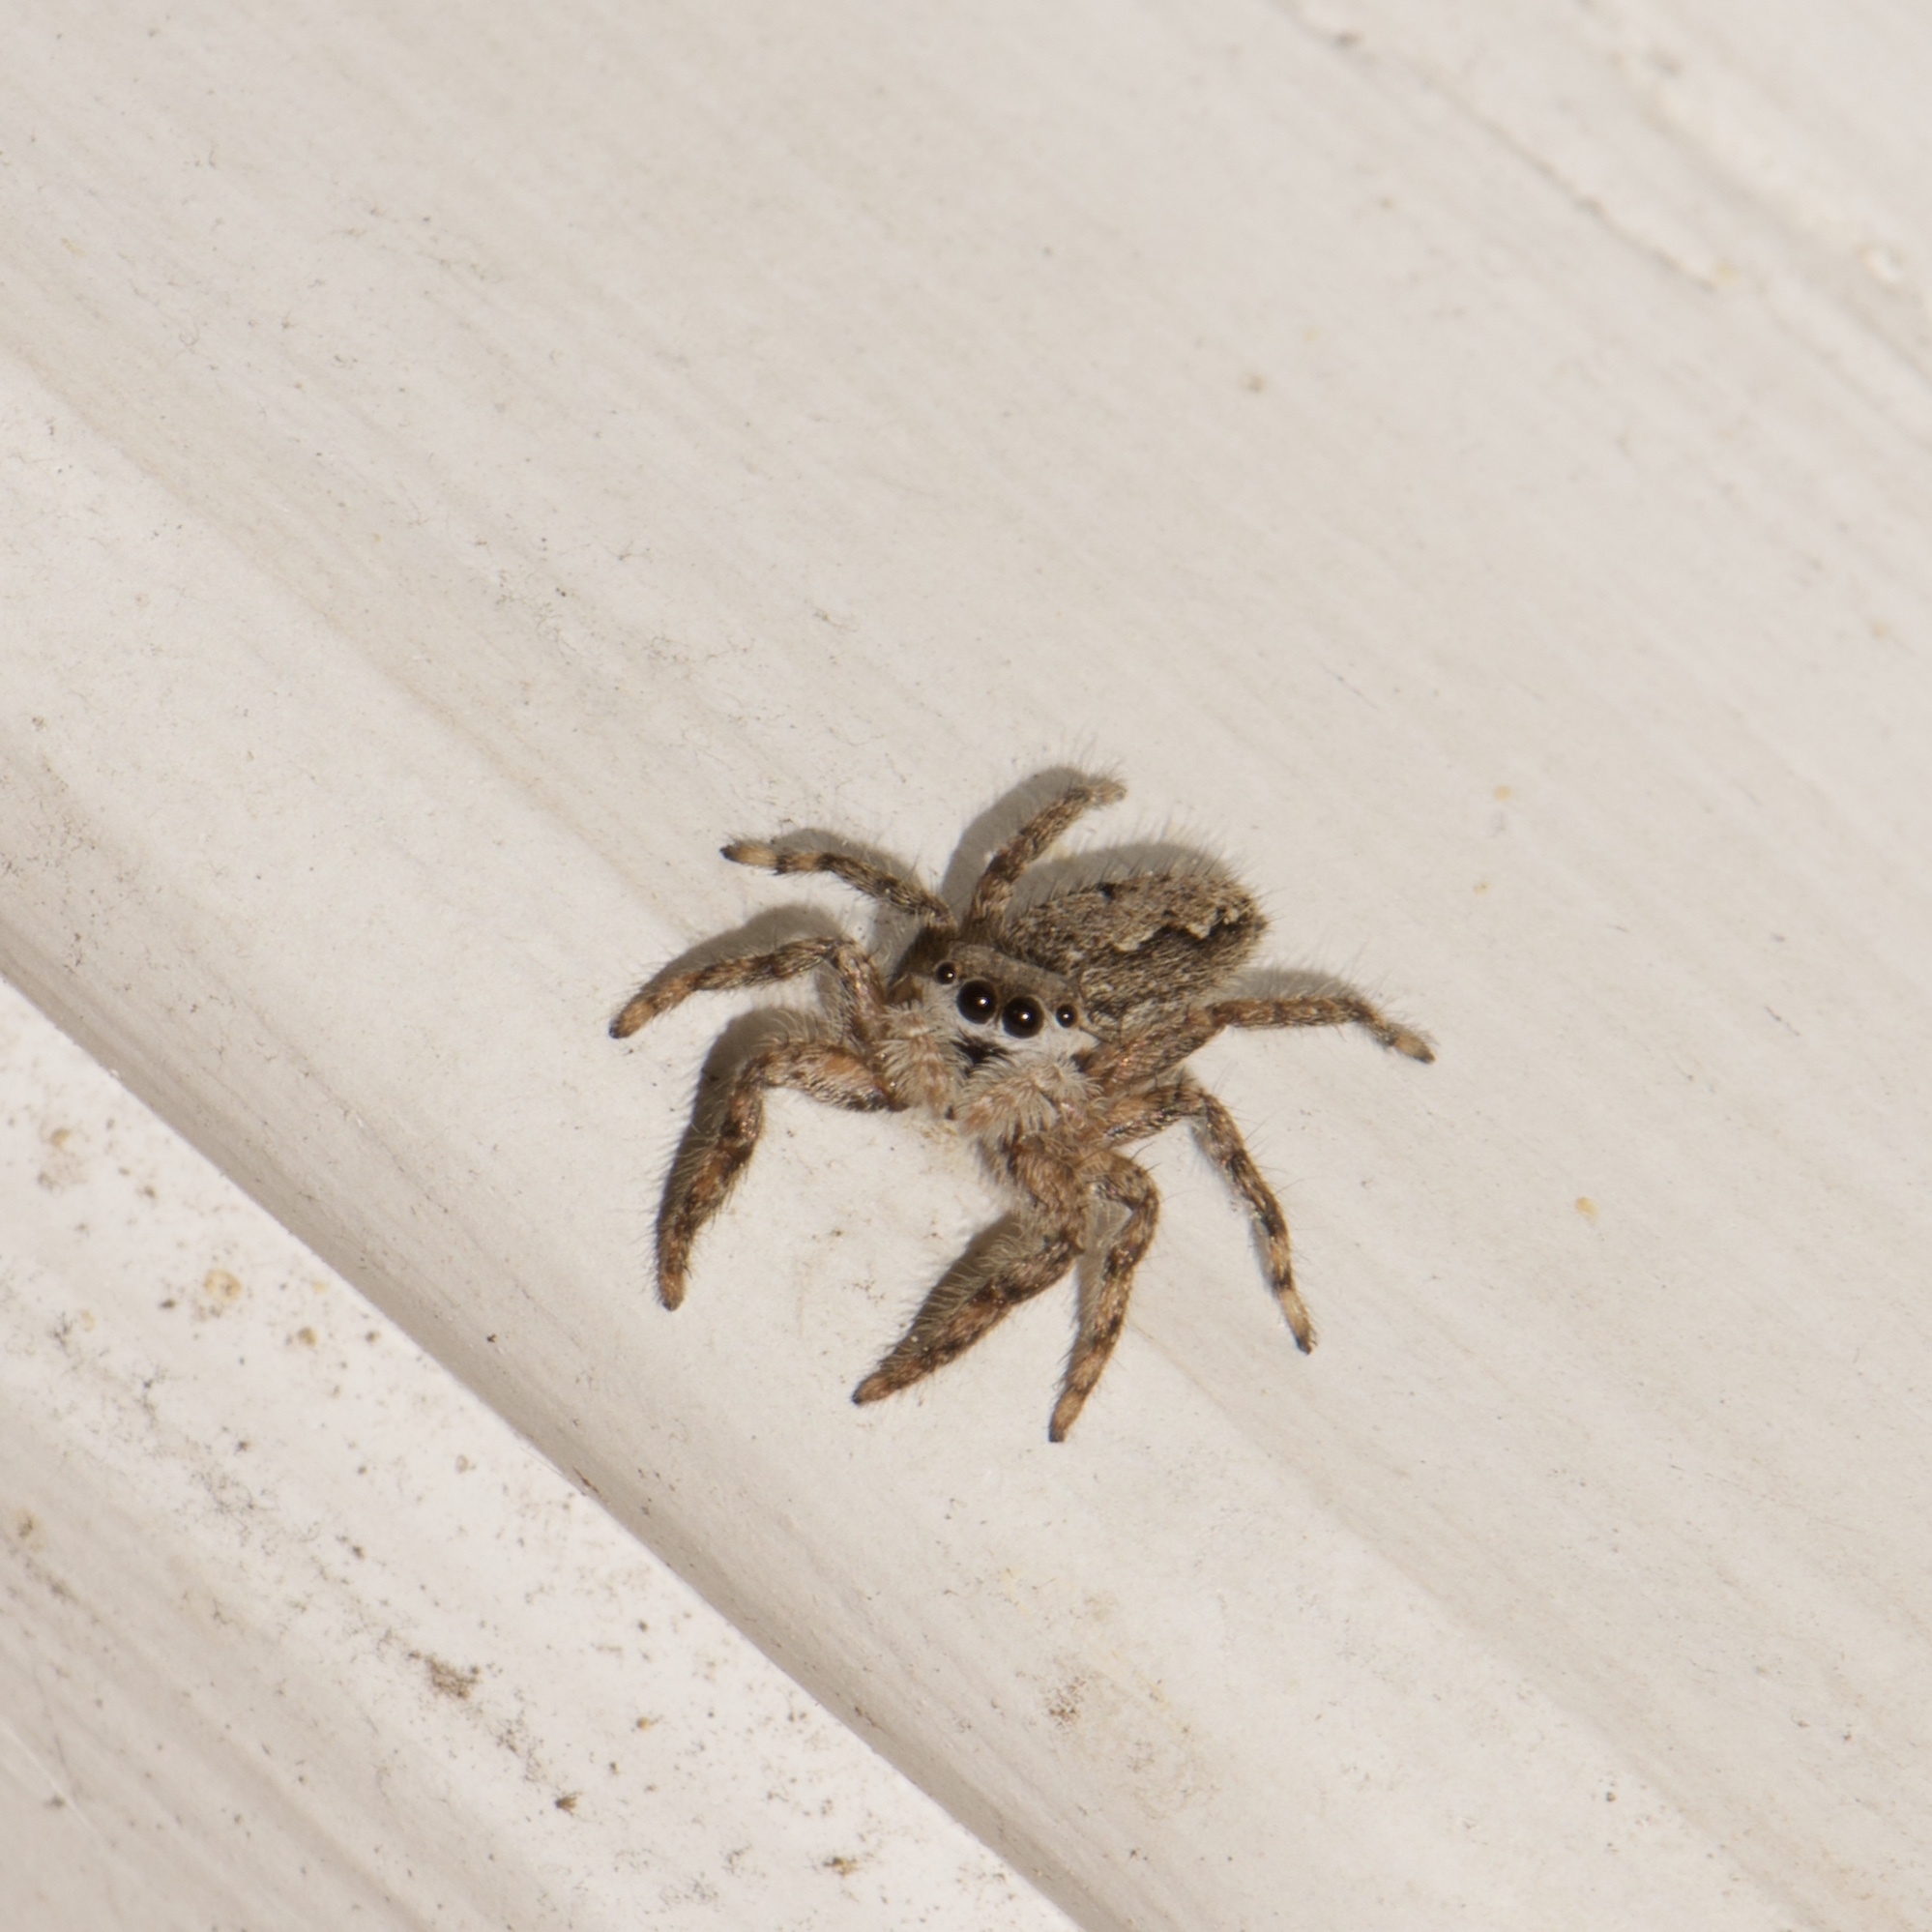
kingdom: Animalia
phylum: Arthropoda
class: Arachnida
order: Araneae
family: Salticidae
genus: Platycryptus
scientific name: Platycryptus undatus
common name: Tan jumping spider
